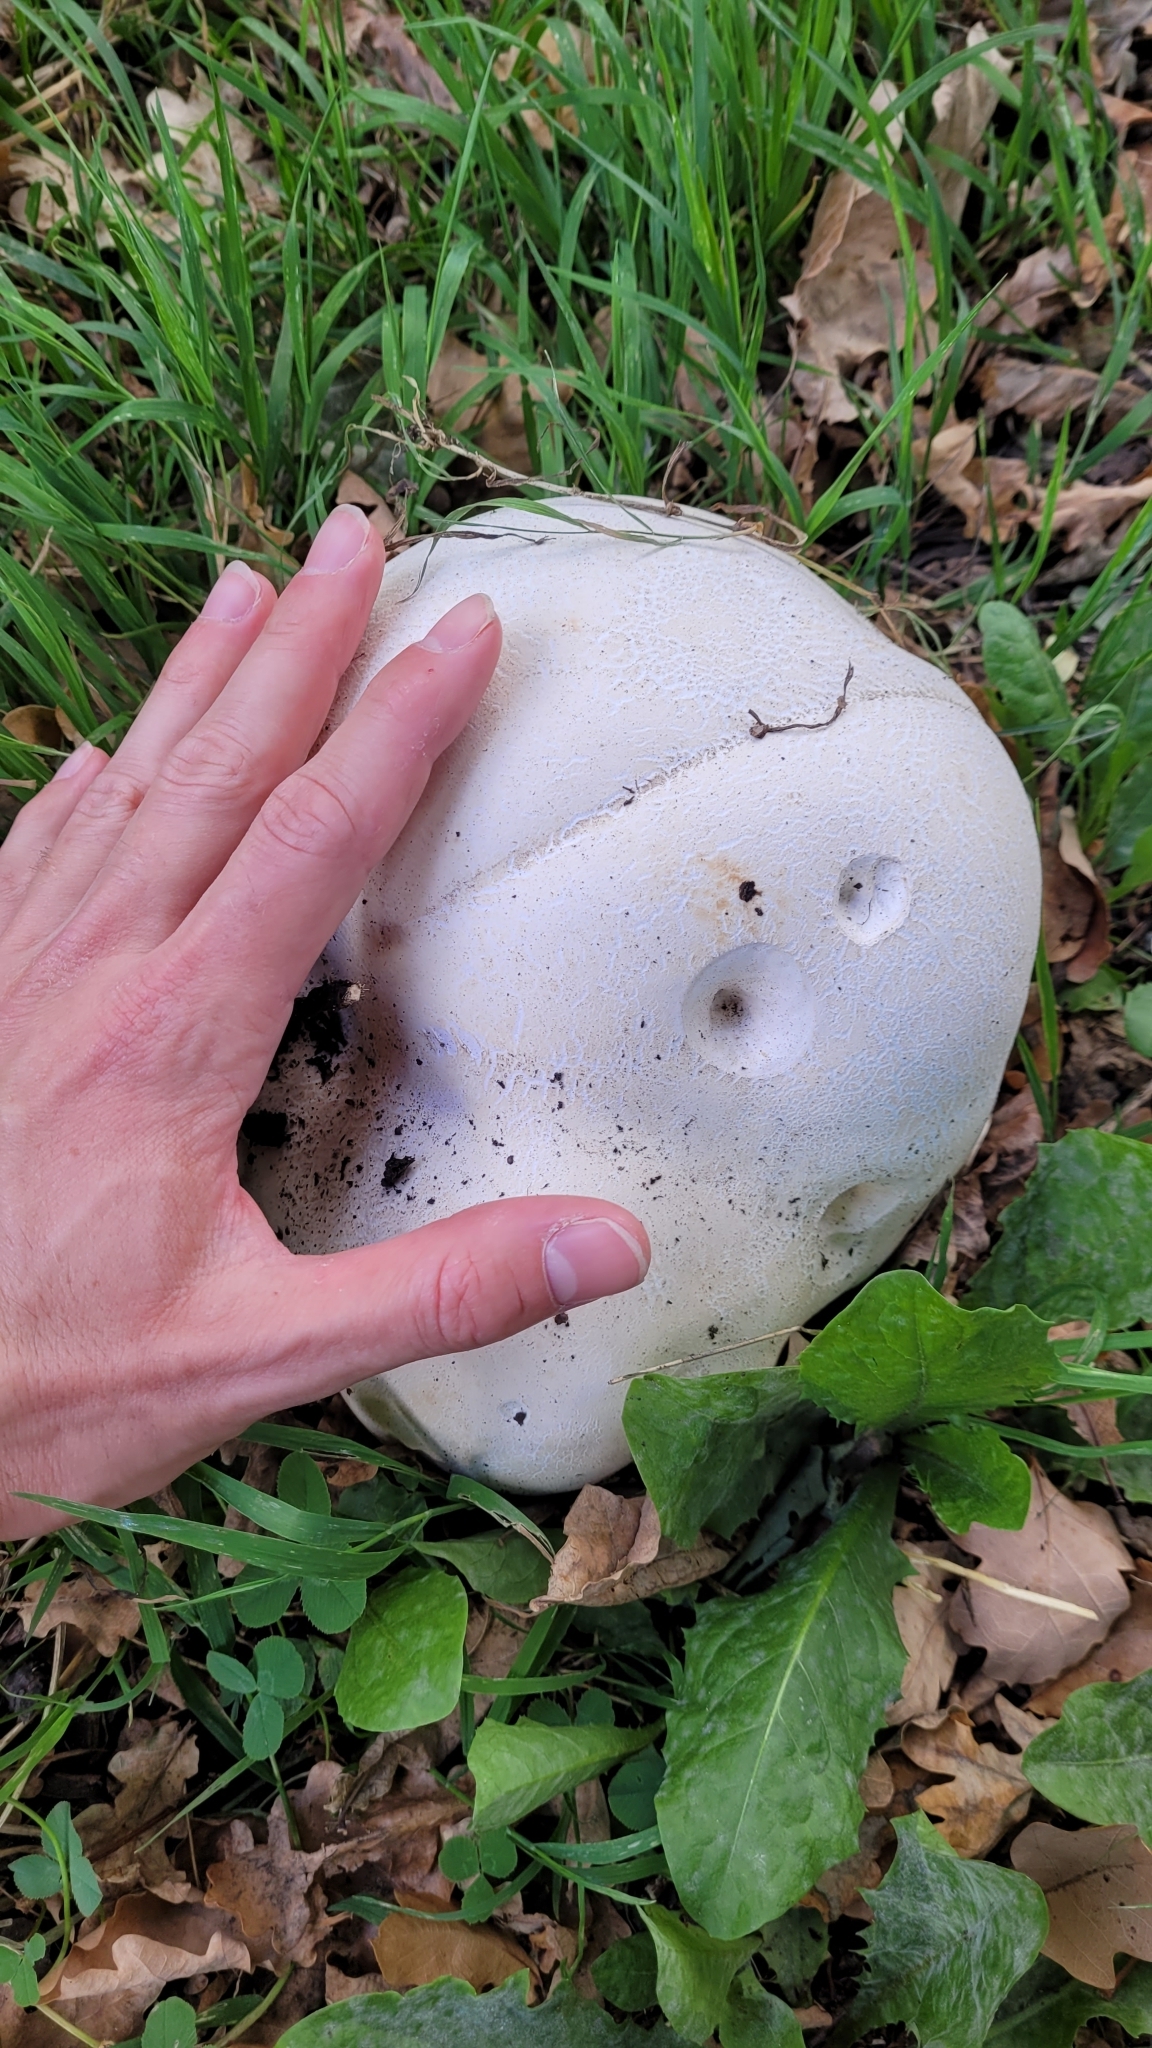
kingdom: Fungi
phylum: Basidiomycota
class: Agaricomycetes
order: Agaricales
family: Lycoperdaceae
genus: Calvatia
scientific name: Calvatia gigantea
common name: Giant puffball
